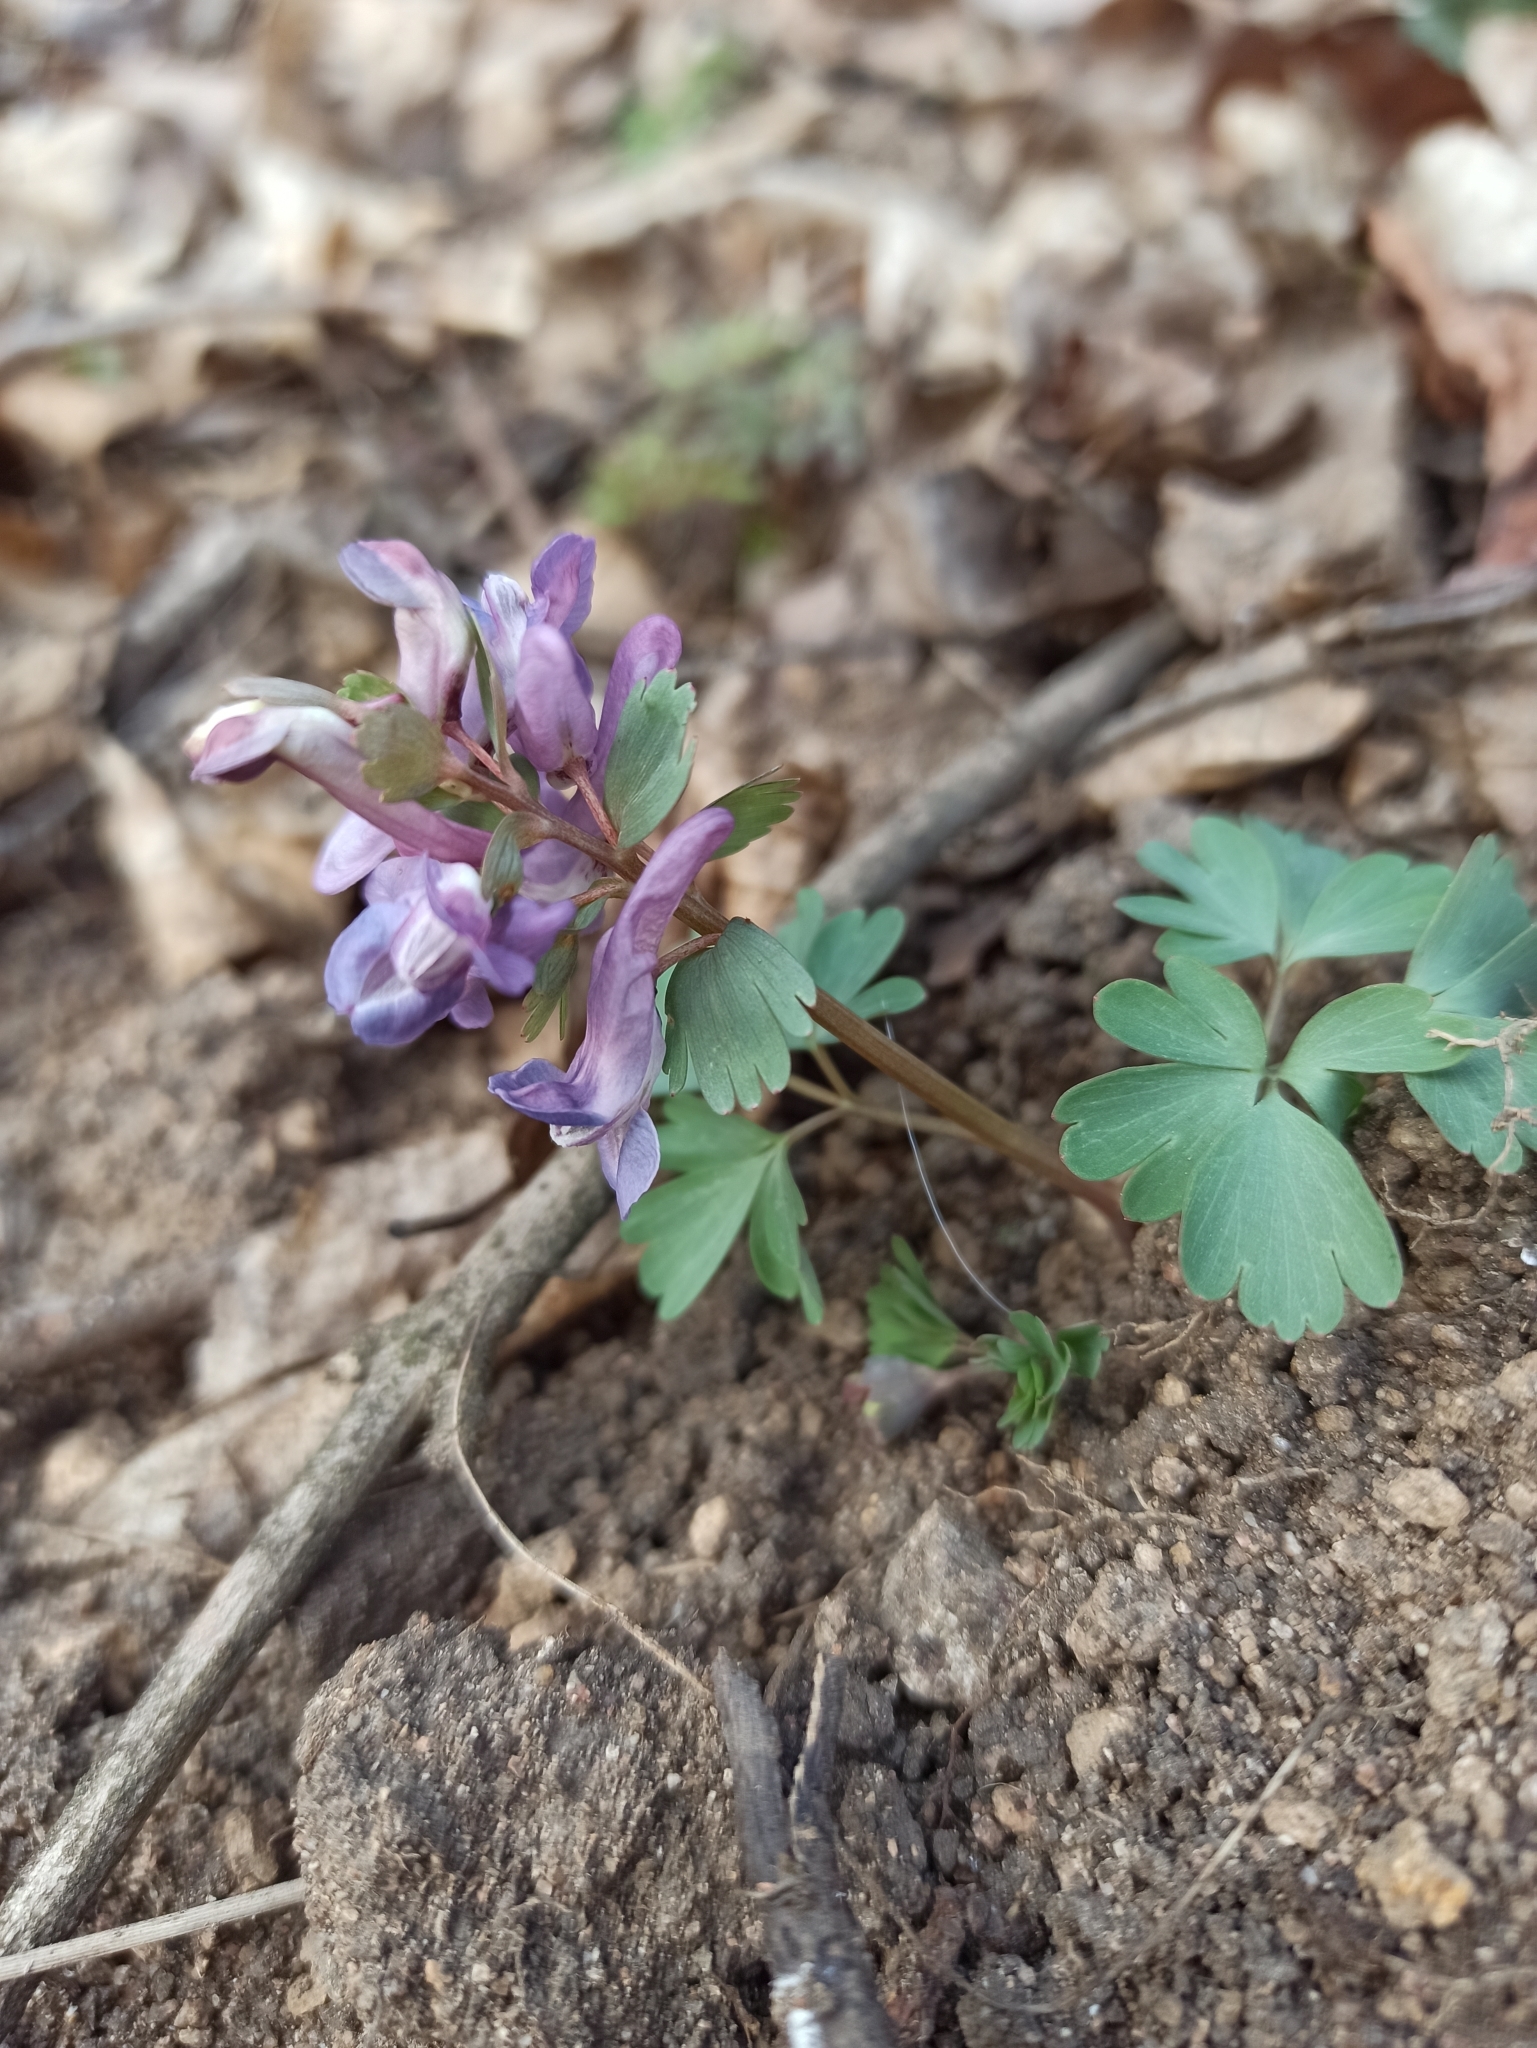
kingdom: Plantae
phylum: Tracheophyta
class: Magnoliopsida
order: Ranunculales
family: Papaveraceae
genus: Corydalis
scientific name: Corydalis solida
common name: Bird-in-a-bush
